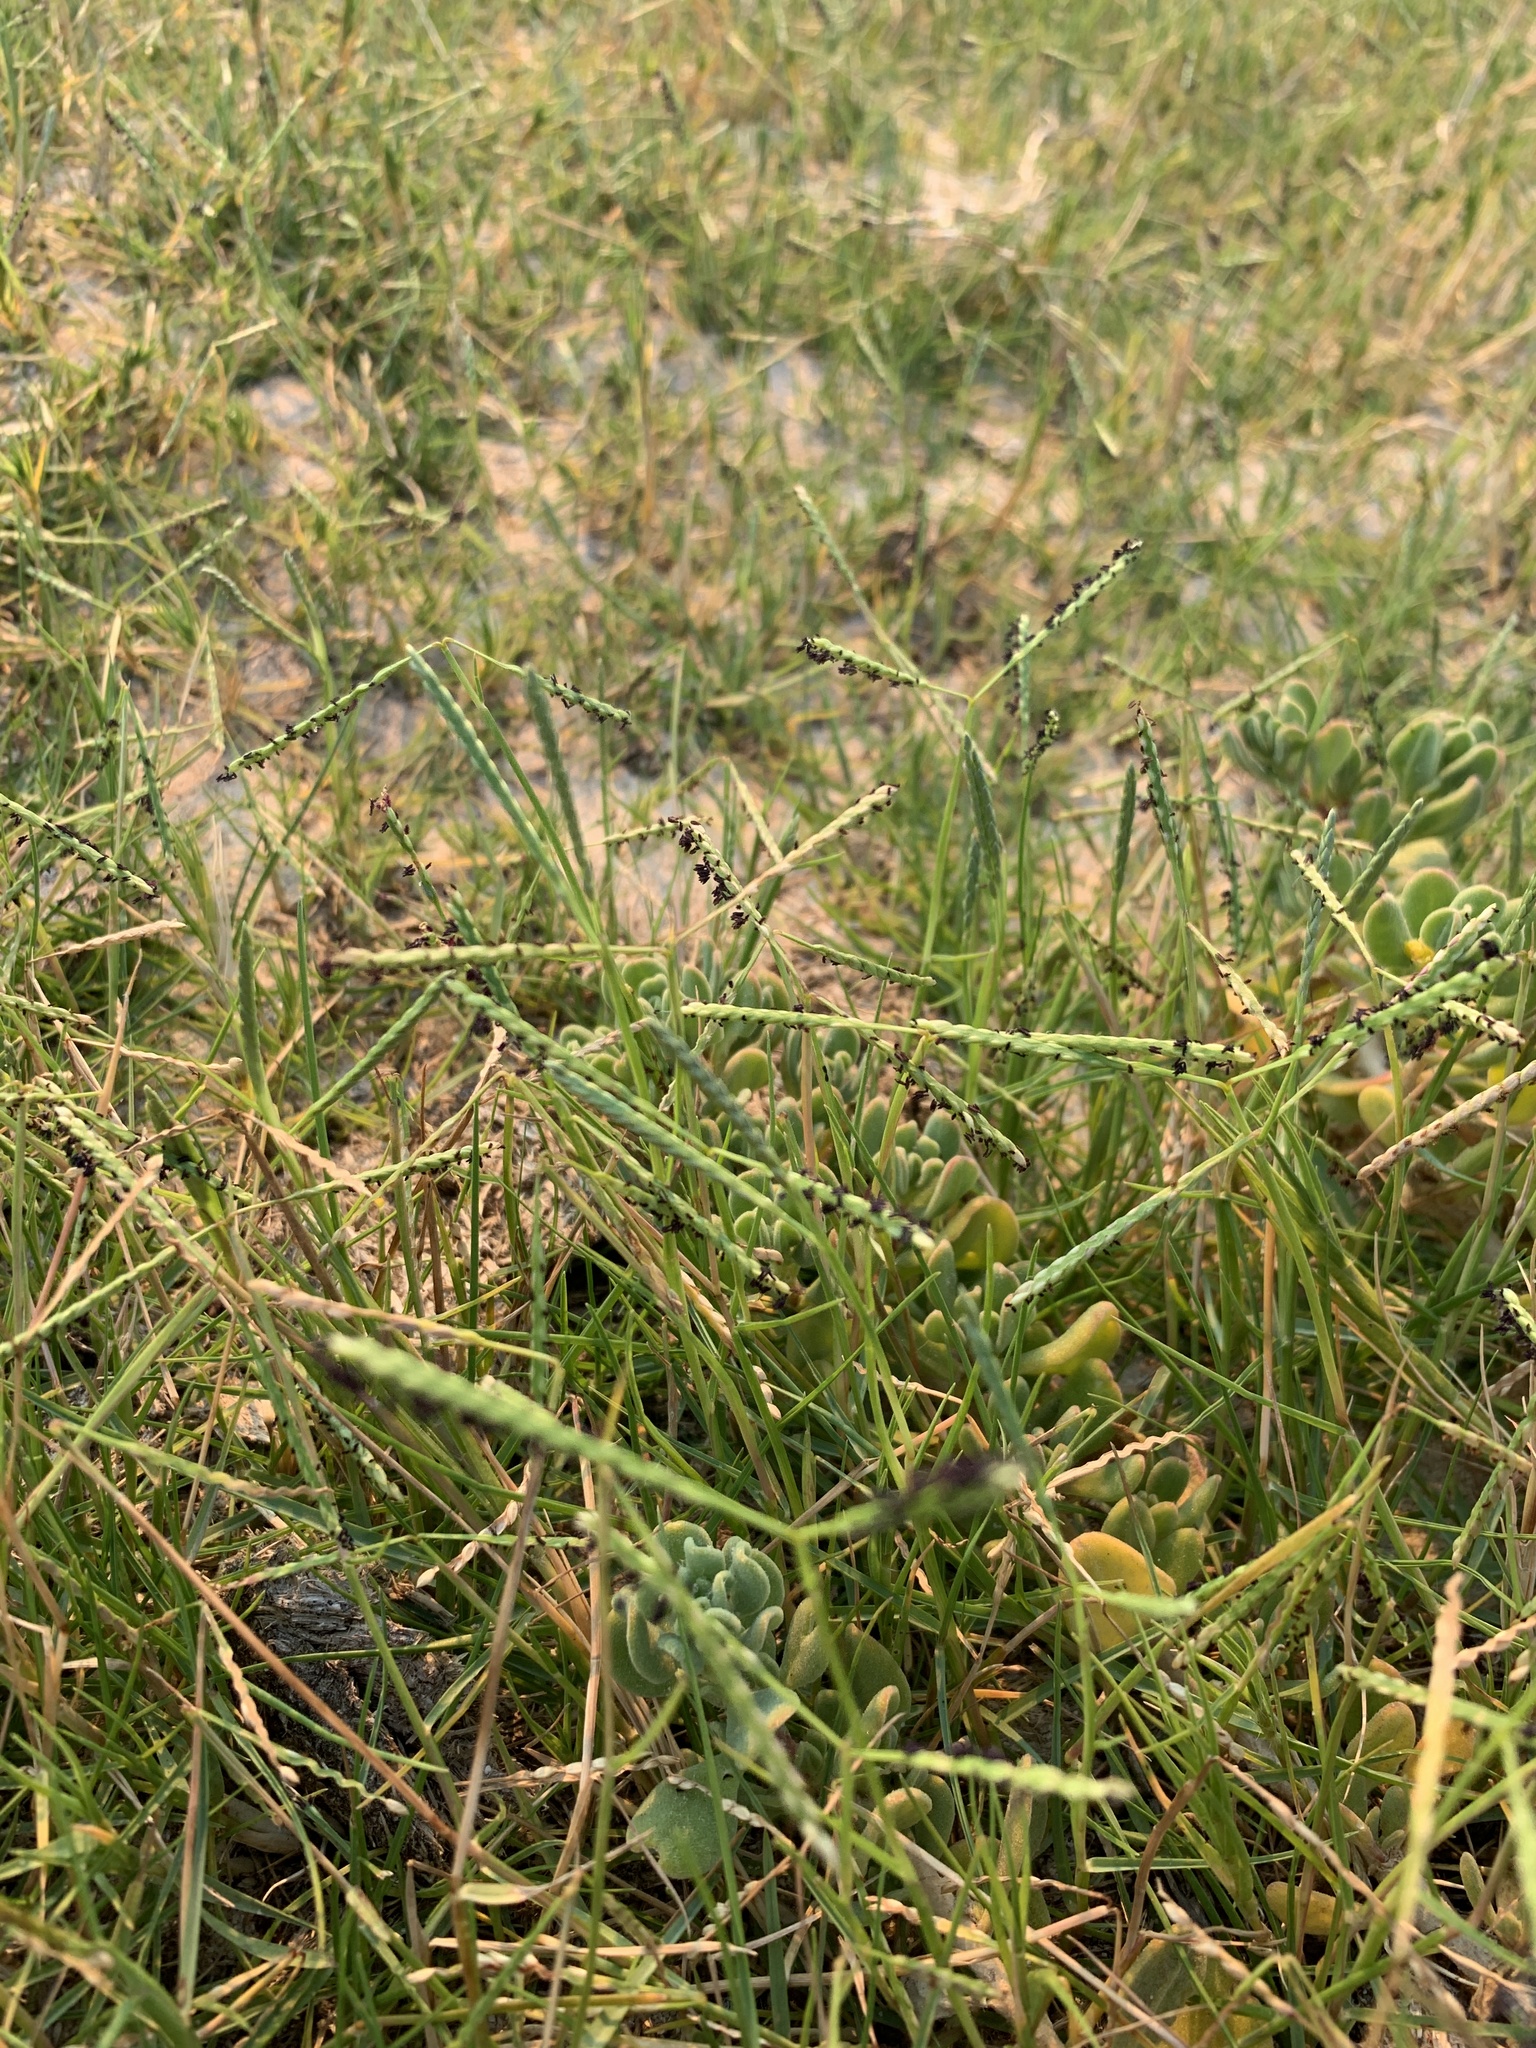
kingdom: Plantae
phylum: Tracheophyta
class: Liliopsida
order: Poales
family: Poaceae
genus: Paspalum
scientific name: Paspalum vaginatum
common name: Seashore paspalum
